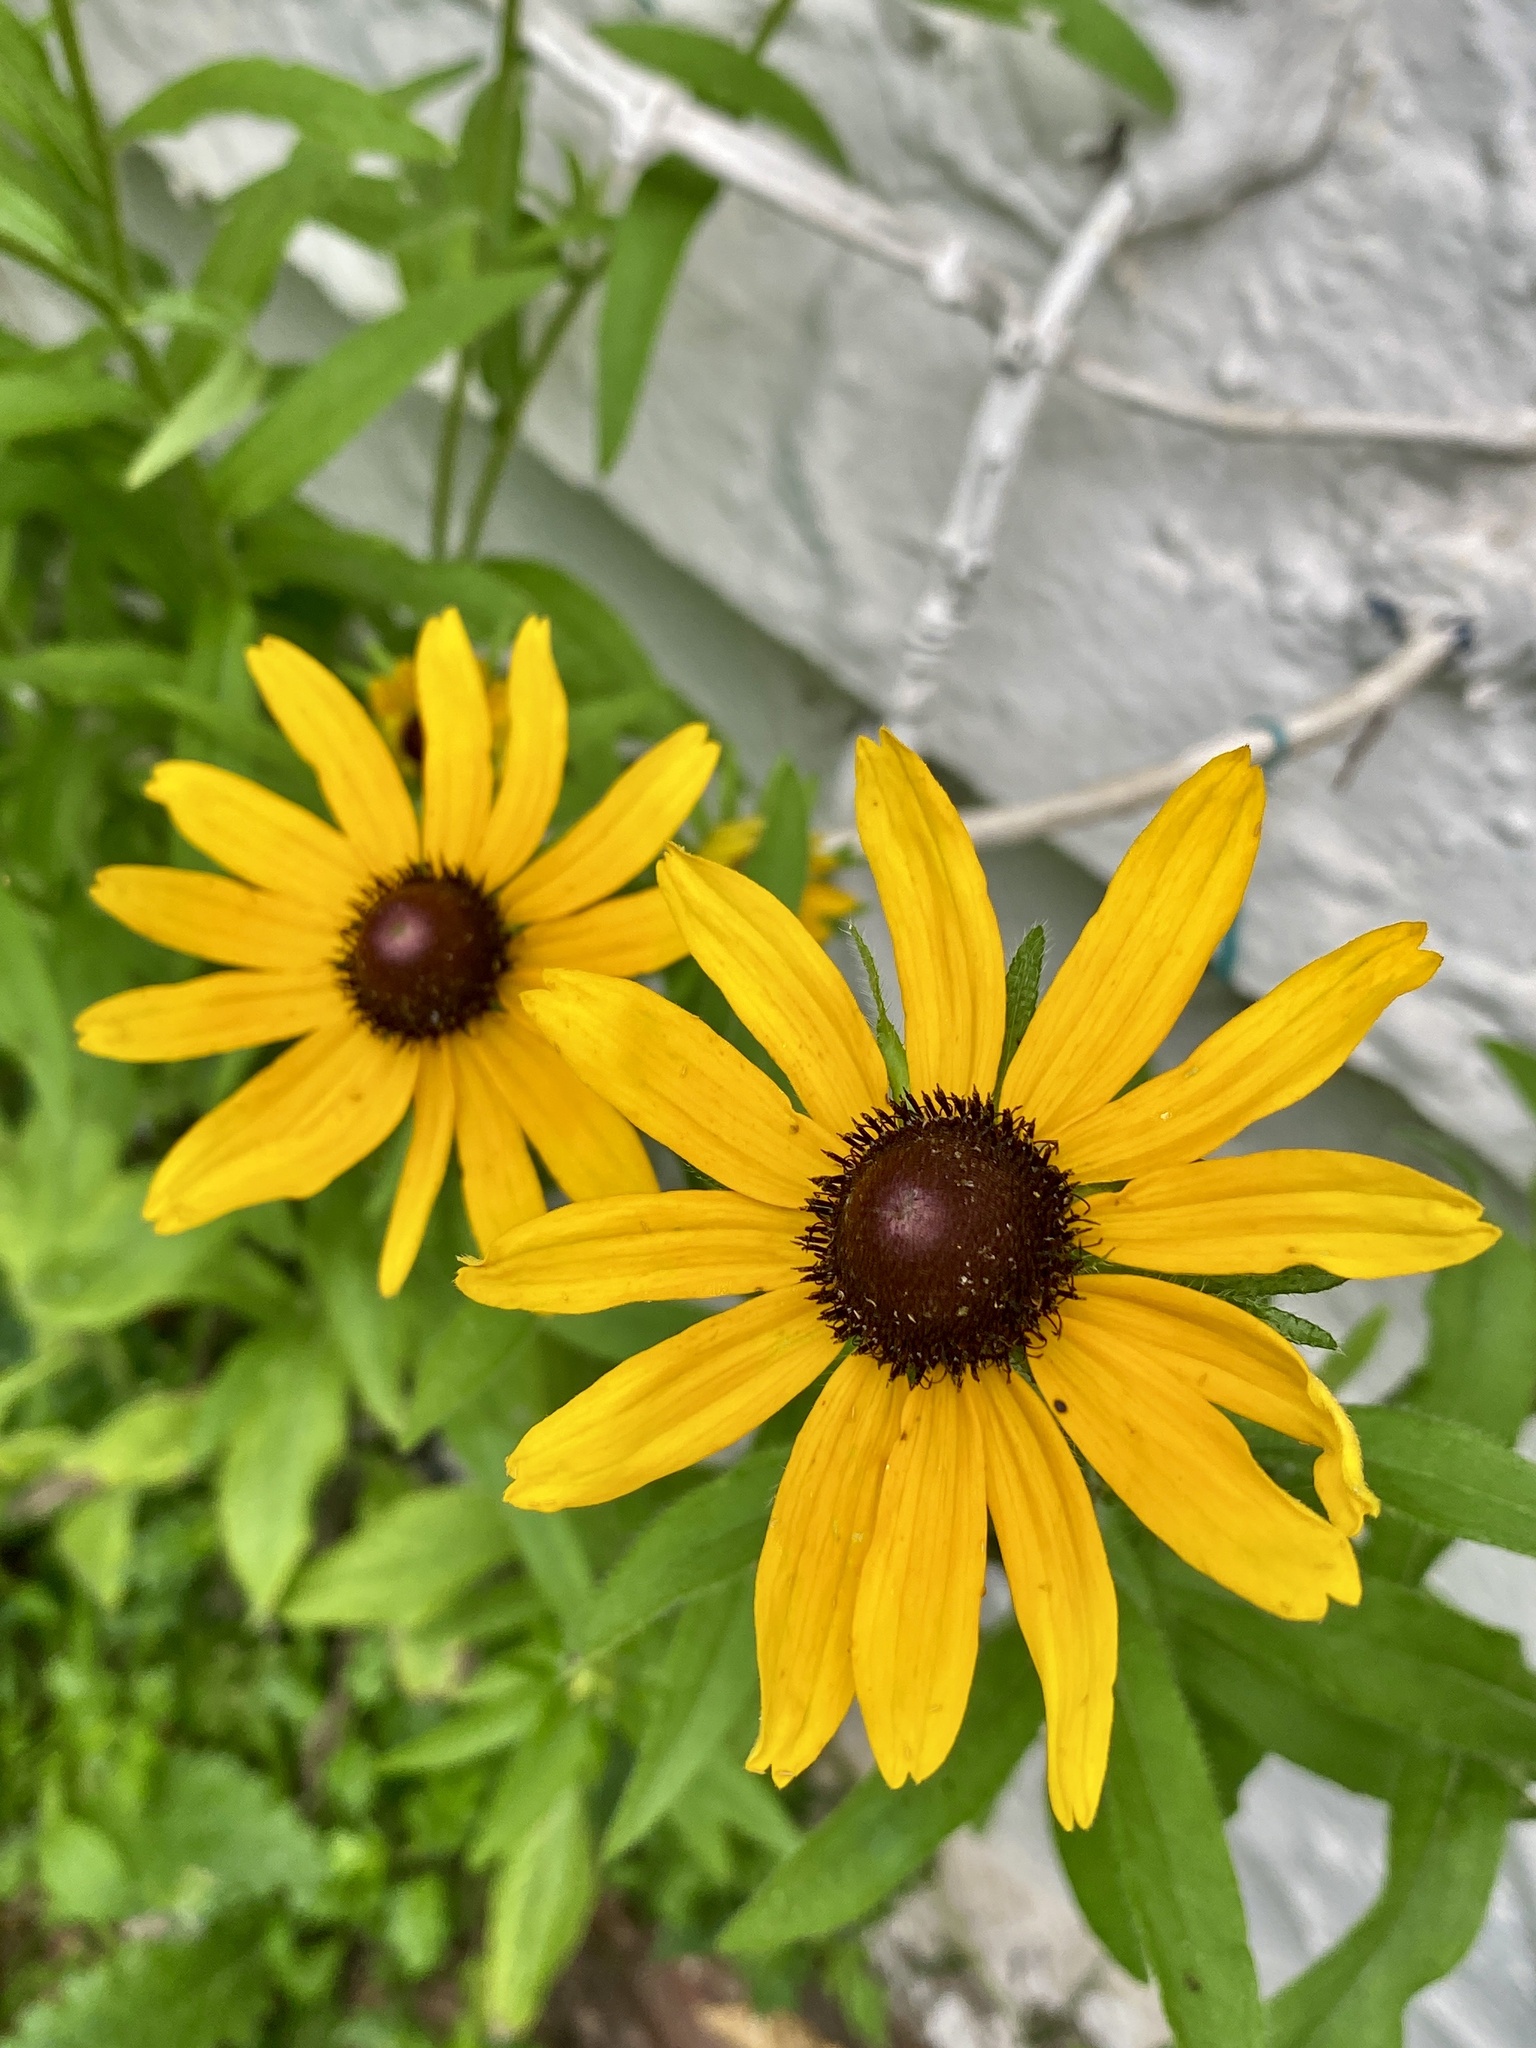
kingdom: Plantae
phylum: Tracheophyta
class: Magnoliopsida
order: Asterales
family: Asteraceae
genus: Rudbeckia
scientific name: Rudbeckia hirta
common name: Black-eyed-susan
